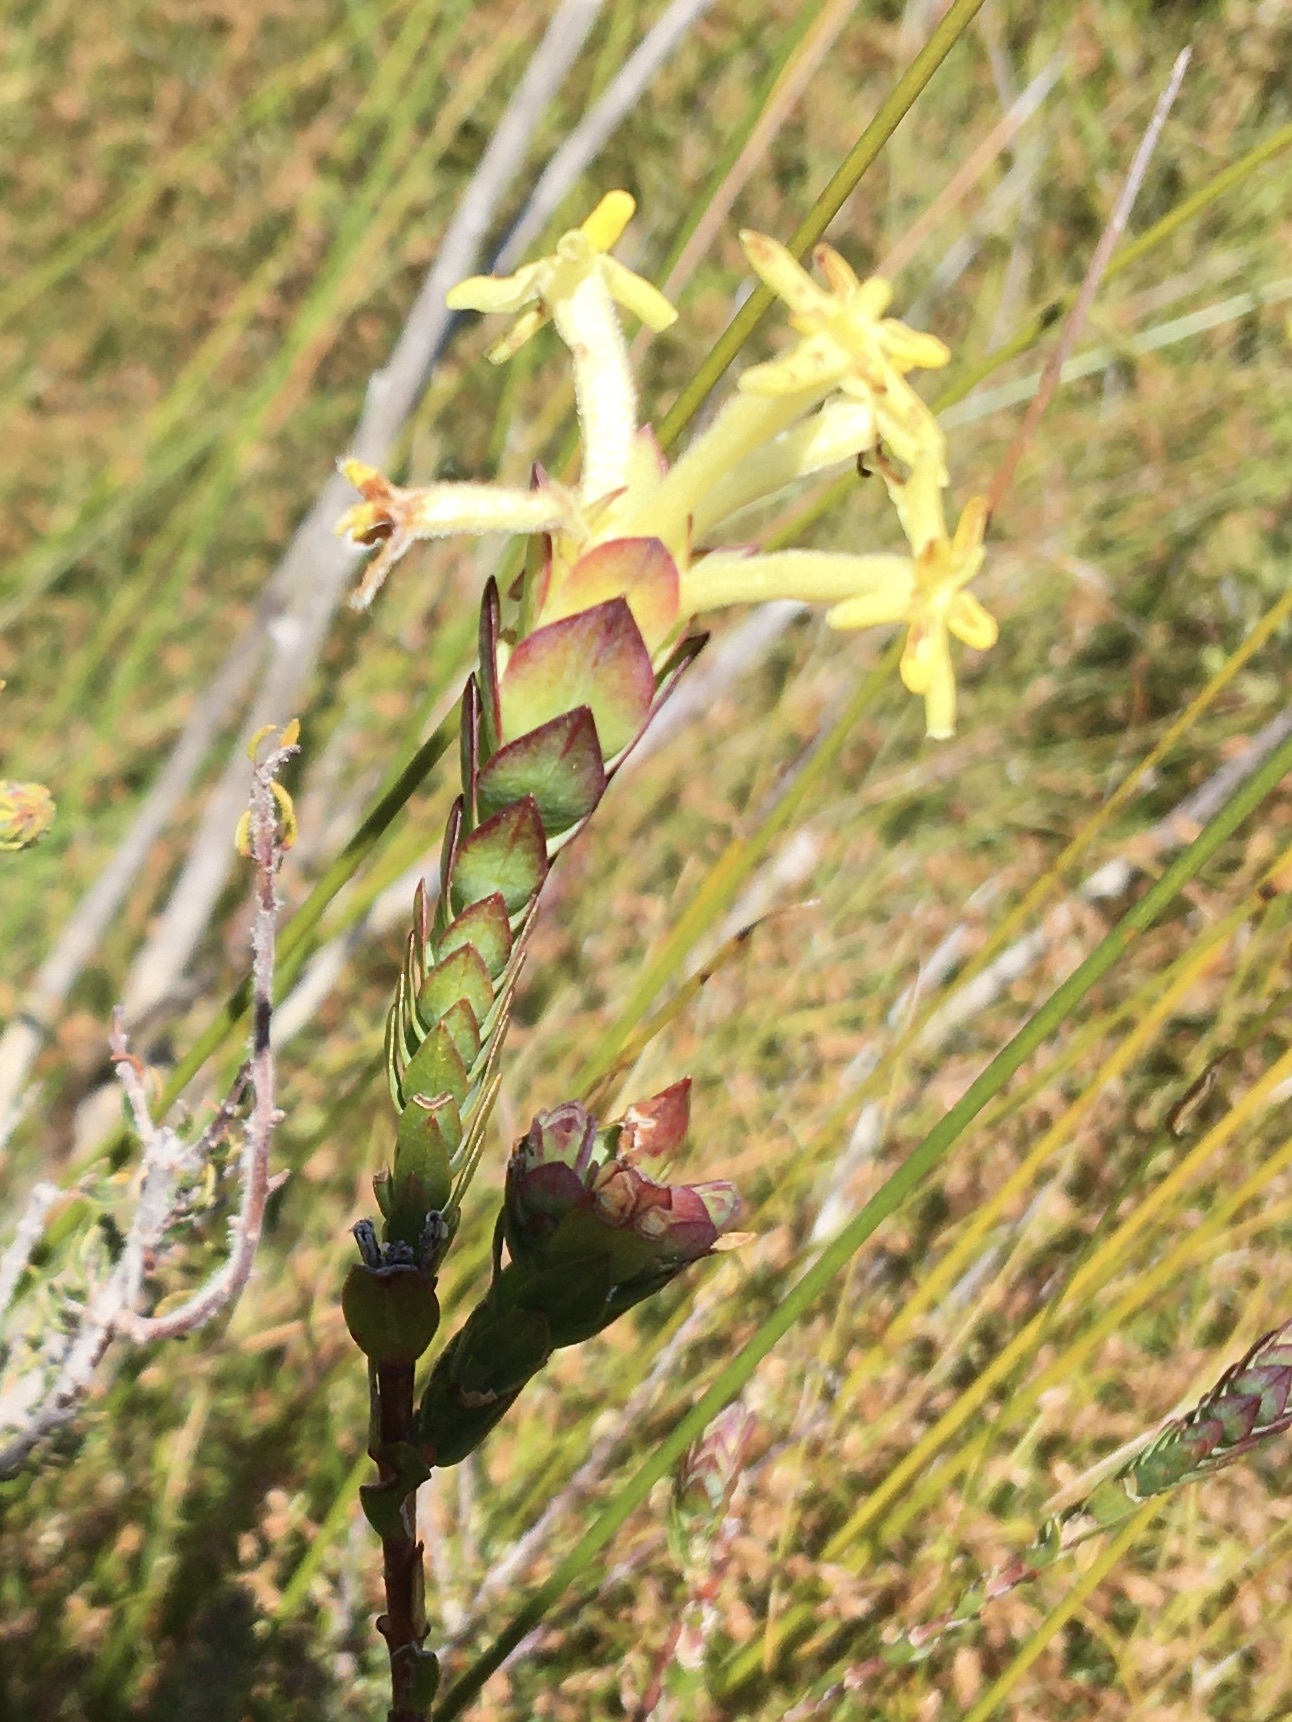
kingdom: Plantae
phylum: Tracheophyta
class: Magnoliopsida
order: Malvales
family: Thymelaeaceae
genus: Gnidia
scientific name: Gnidia oppositifolia
